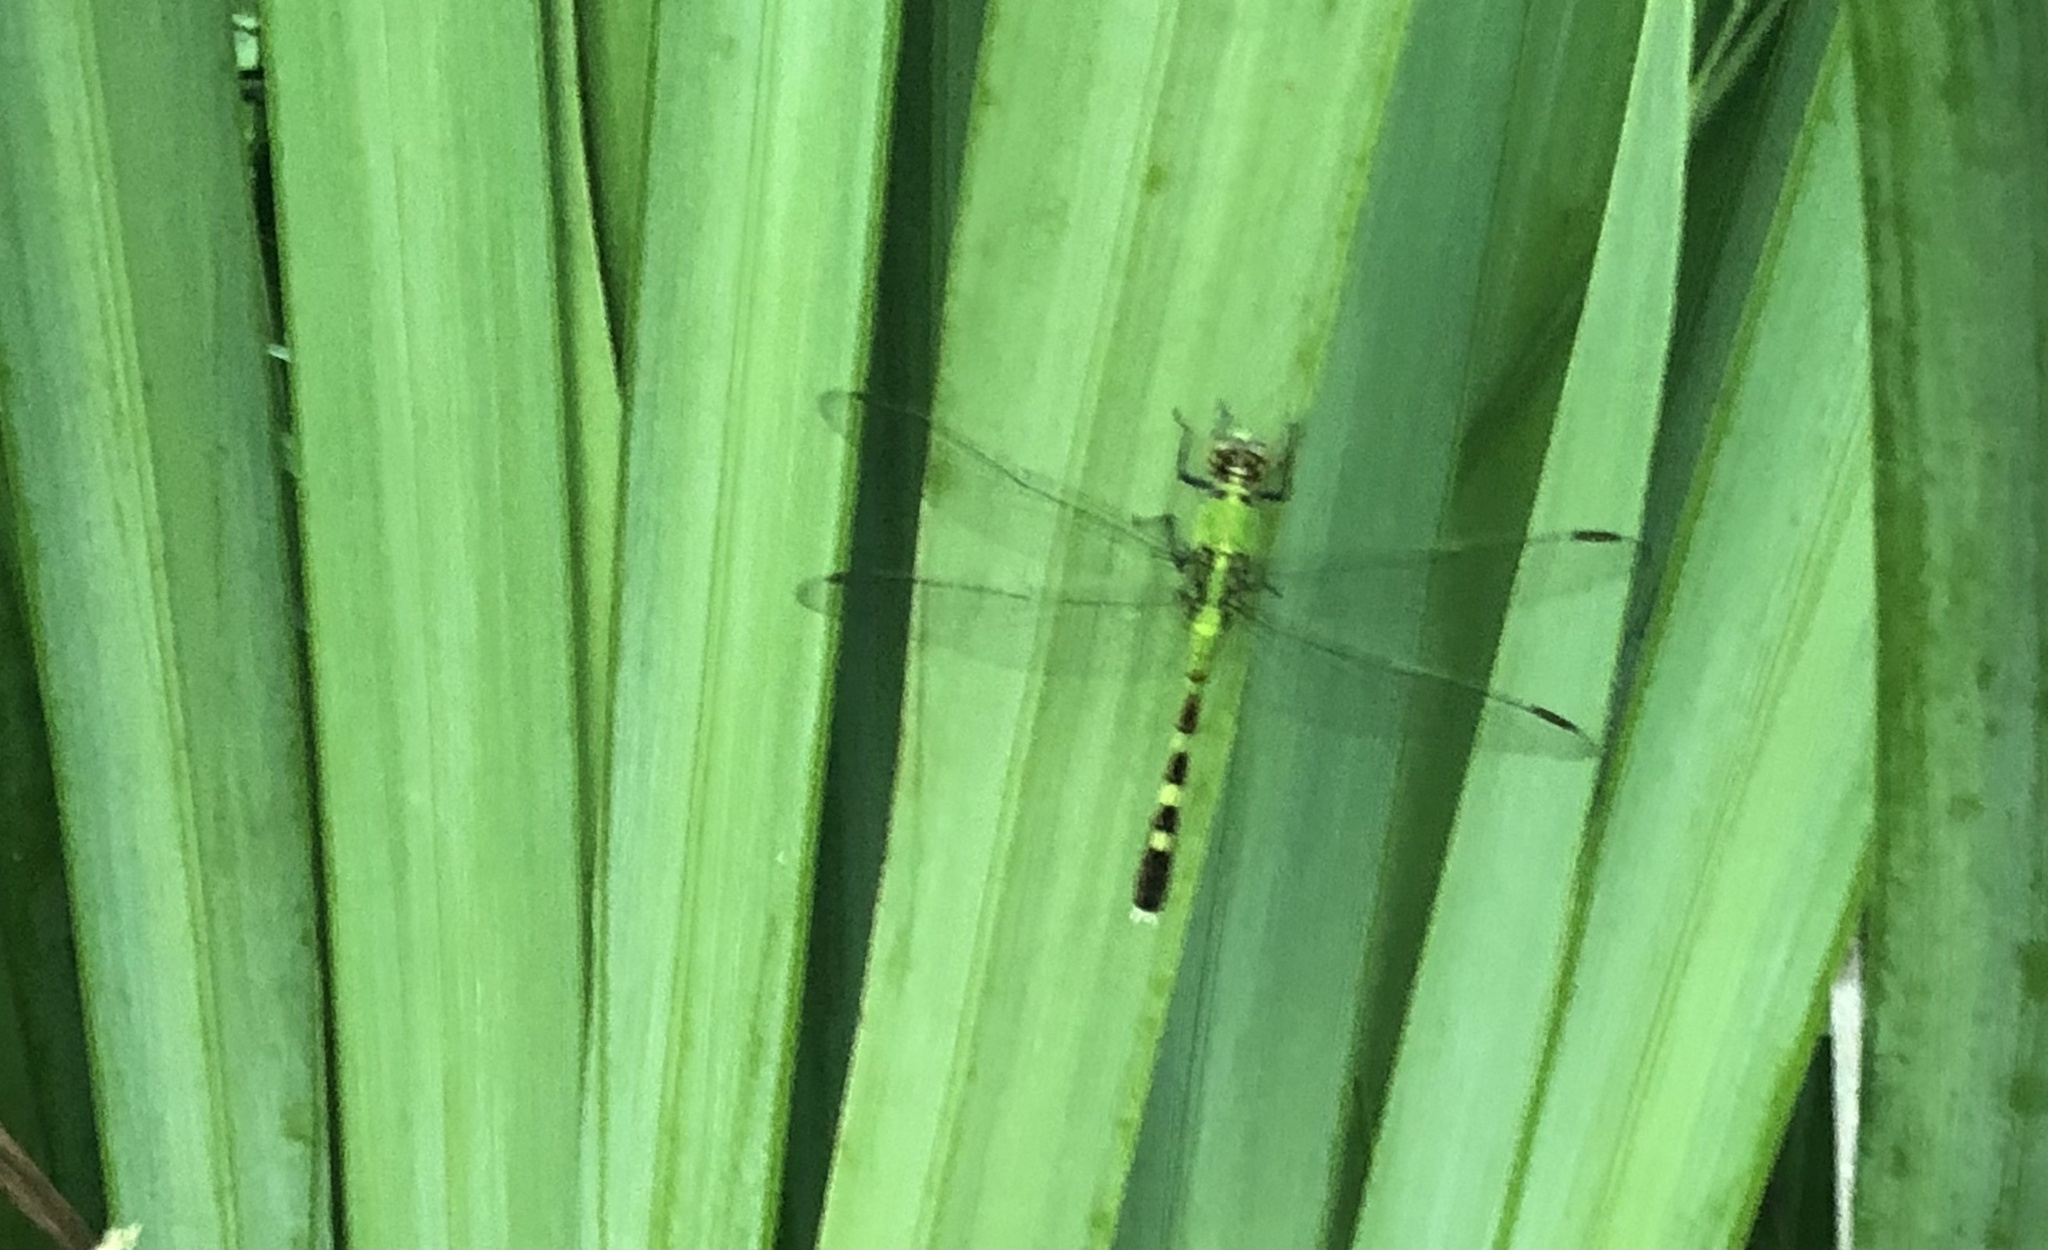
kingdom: Animalia
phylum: Arthropoda
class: Insecta
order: Odonata
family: Libellulidae
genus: Erythemis
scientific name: Erythemis simplicicollis
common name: Eastern pondhawk
